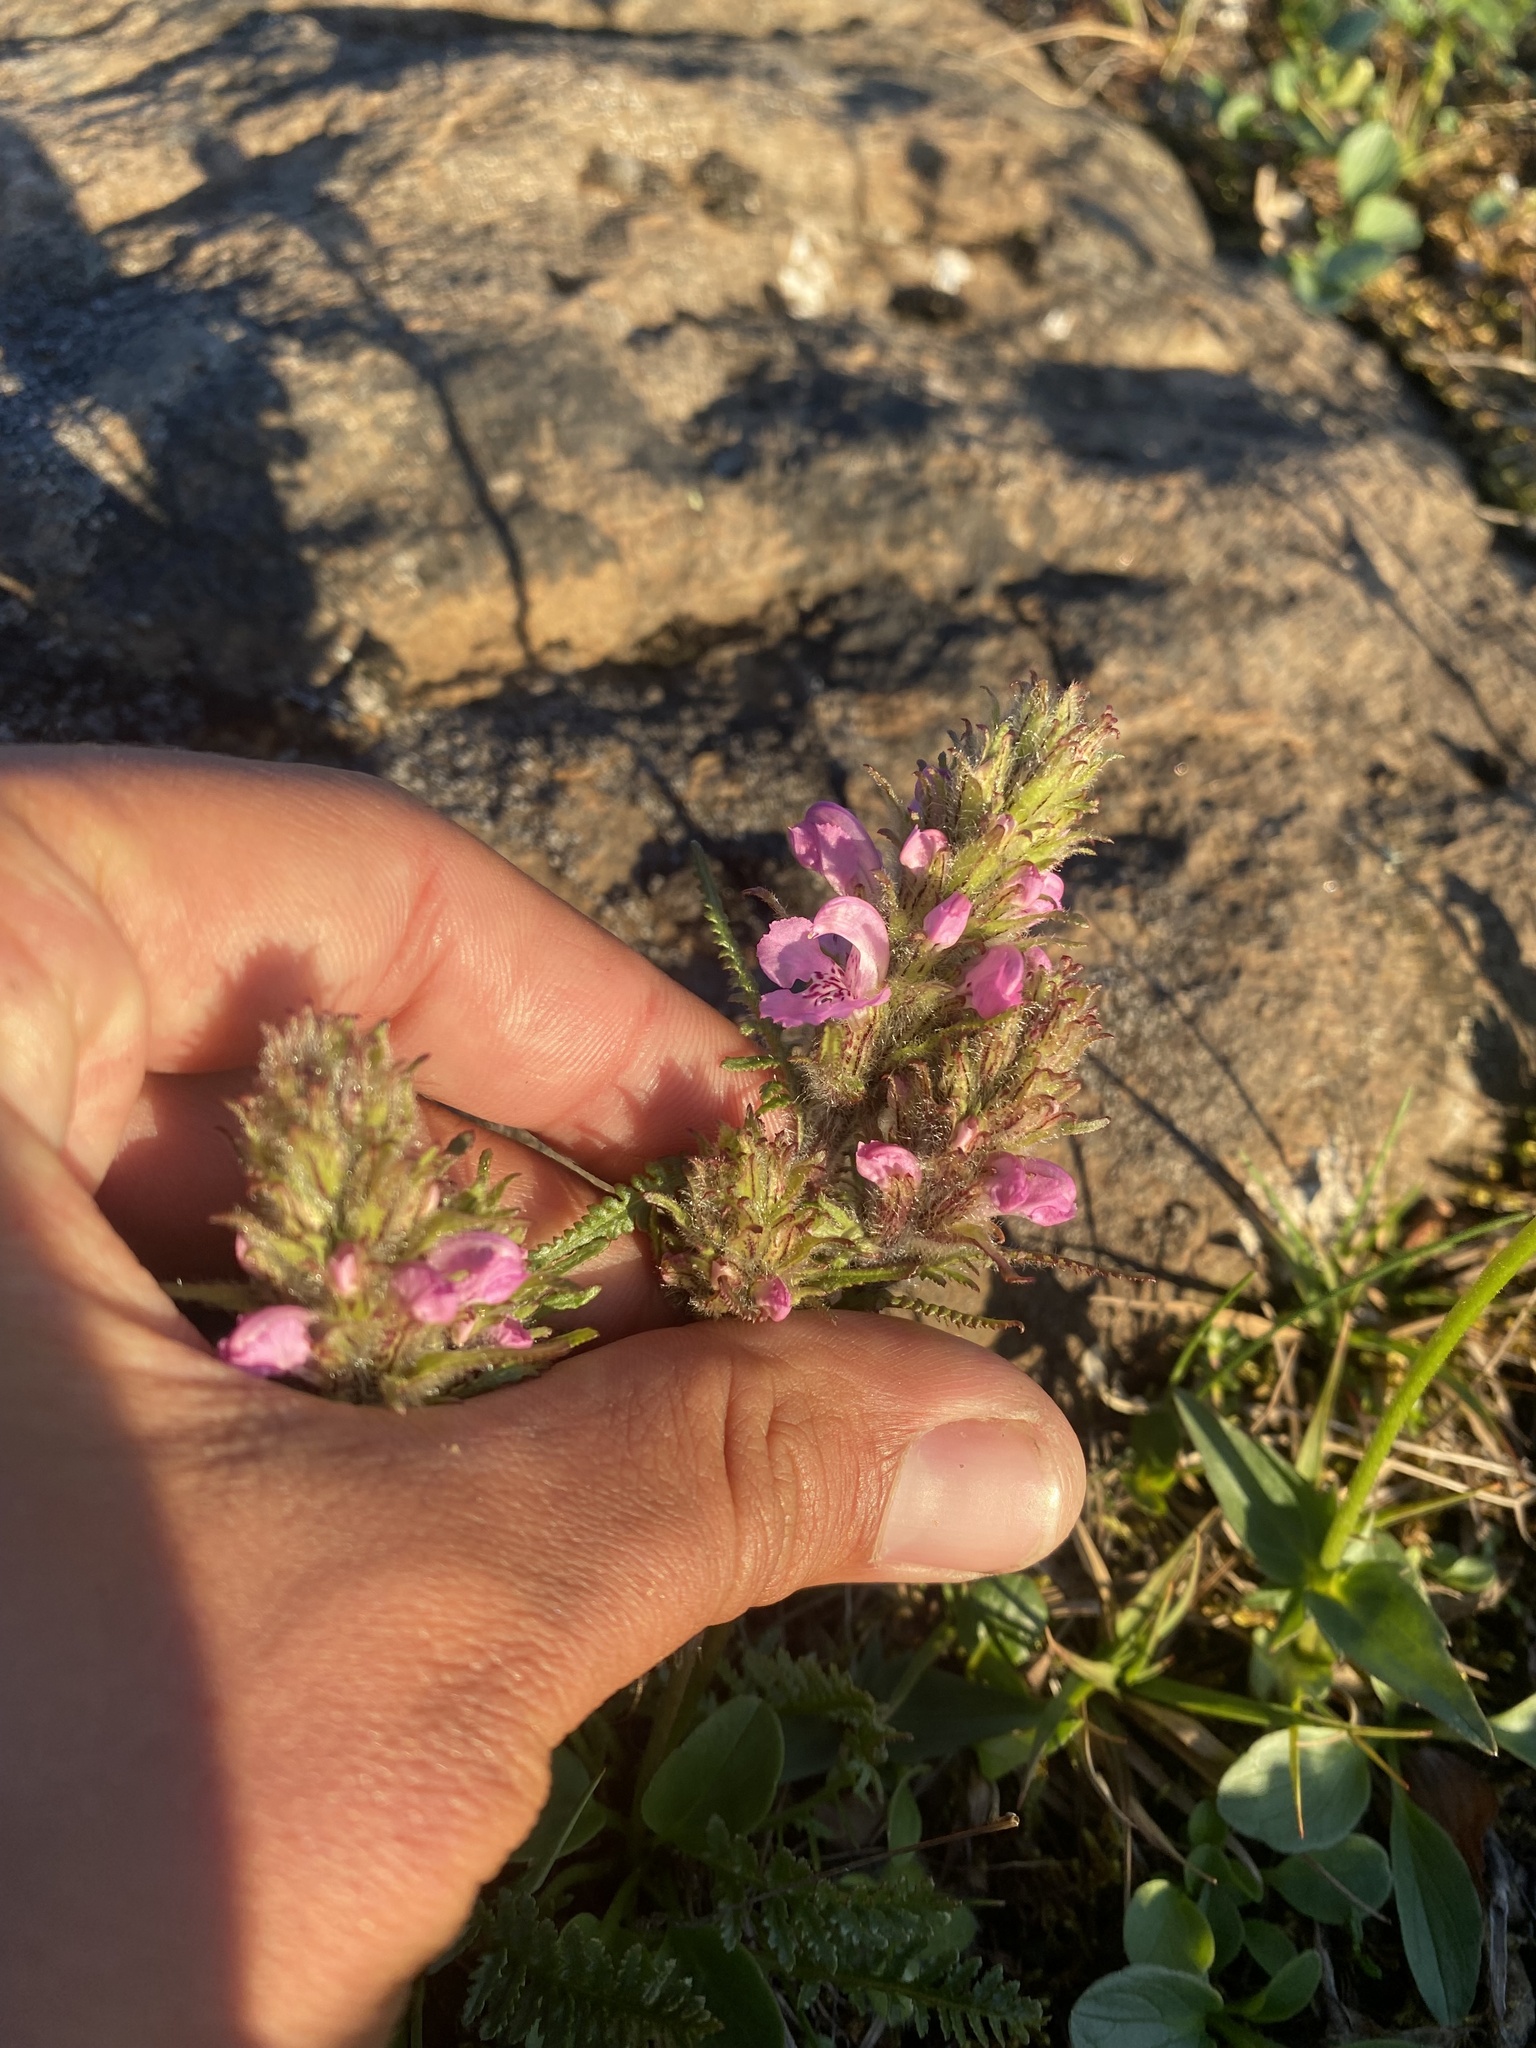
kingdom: Plantae
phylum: Tracheophyta
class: Magnoliopsida
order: Lamiales
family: Orobanchaceae
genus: Pedicularis
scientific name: Pedicularis villosa
